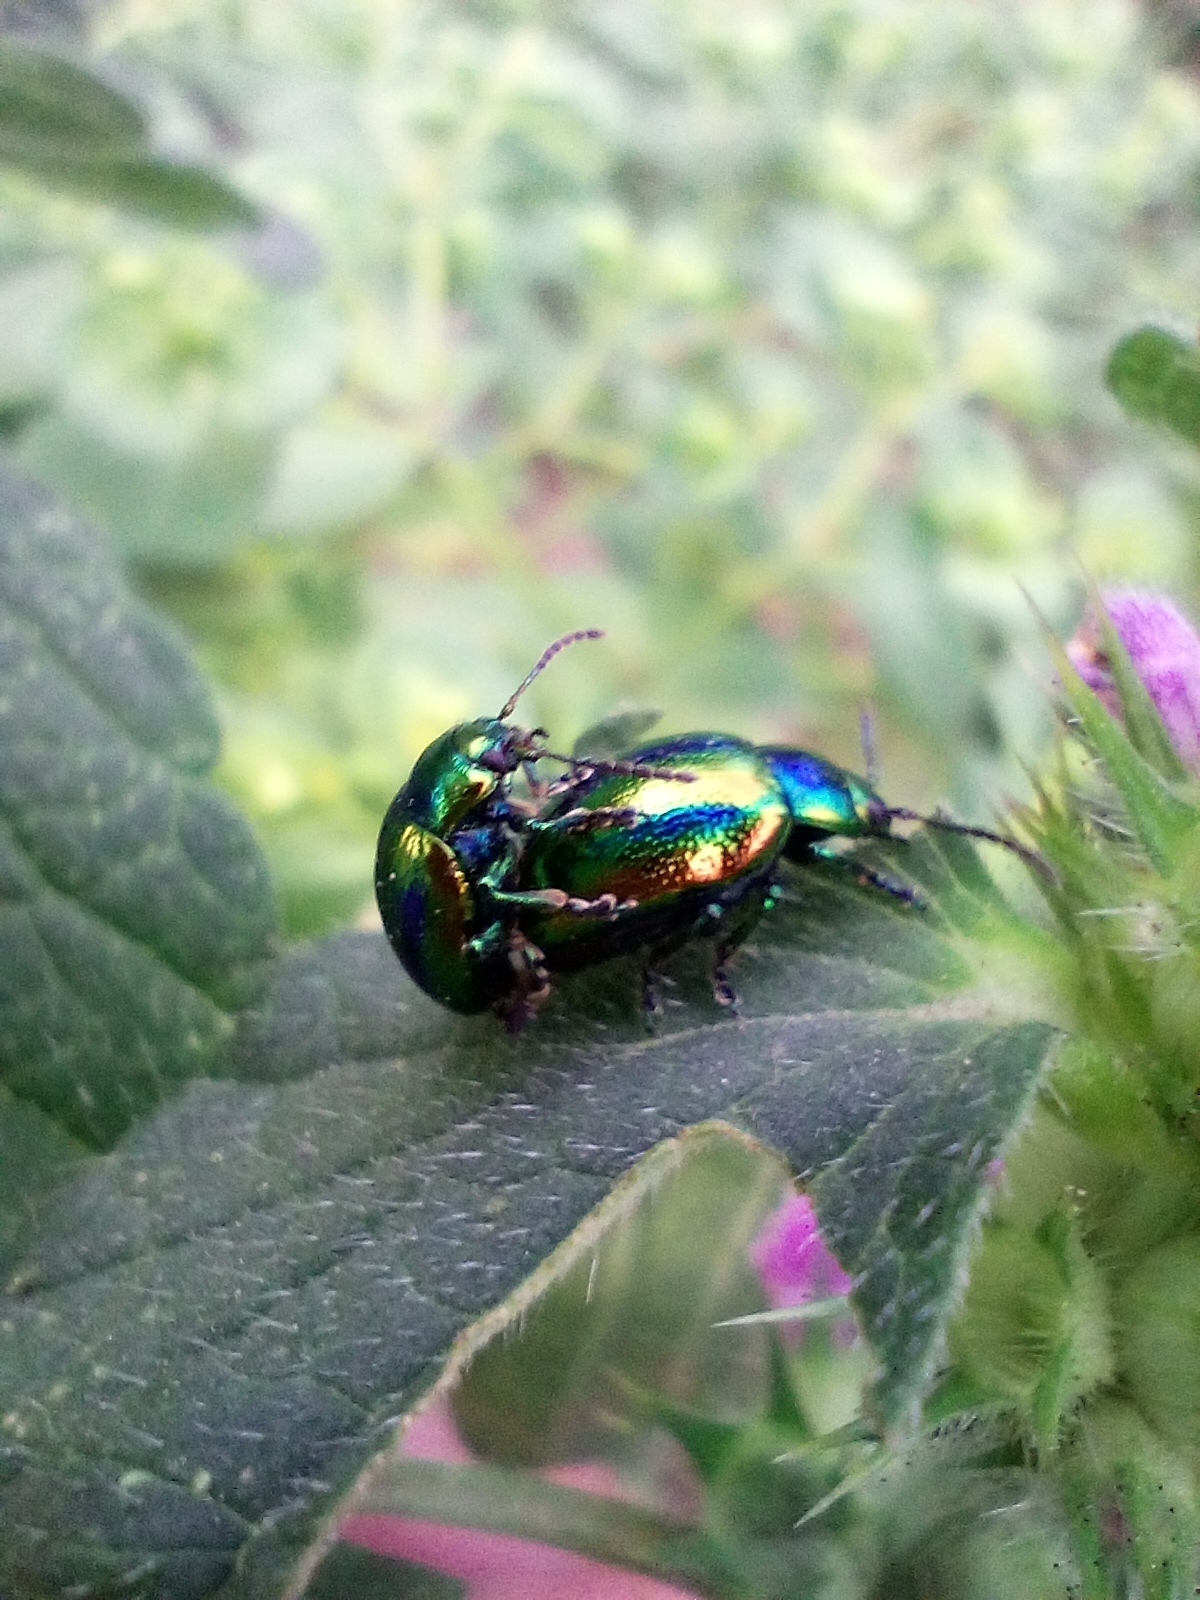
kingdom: Animalia
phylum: Arthropoda
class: Insecta
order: Coleoptera
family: Chrysomelidae
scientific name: Chrysomelidae
